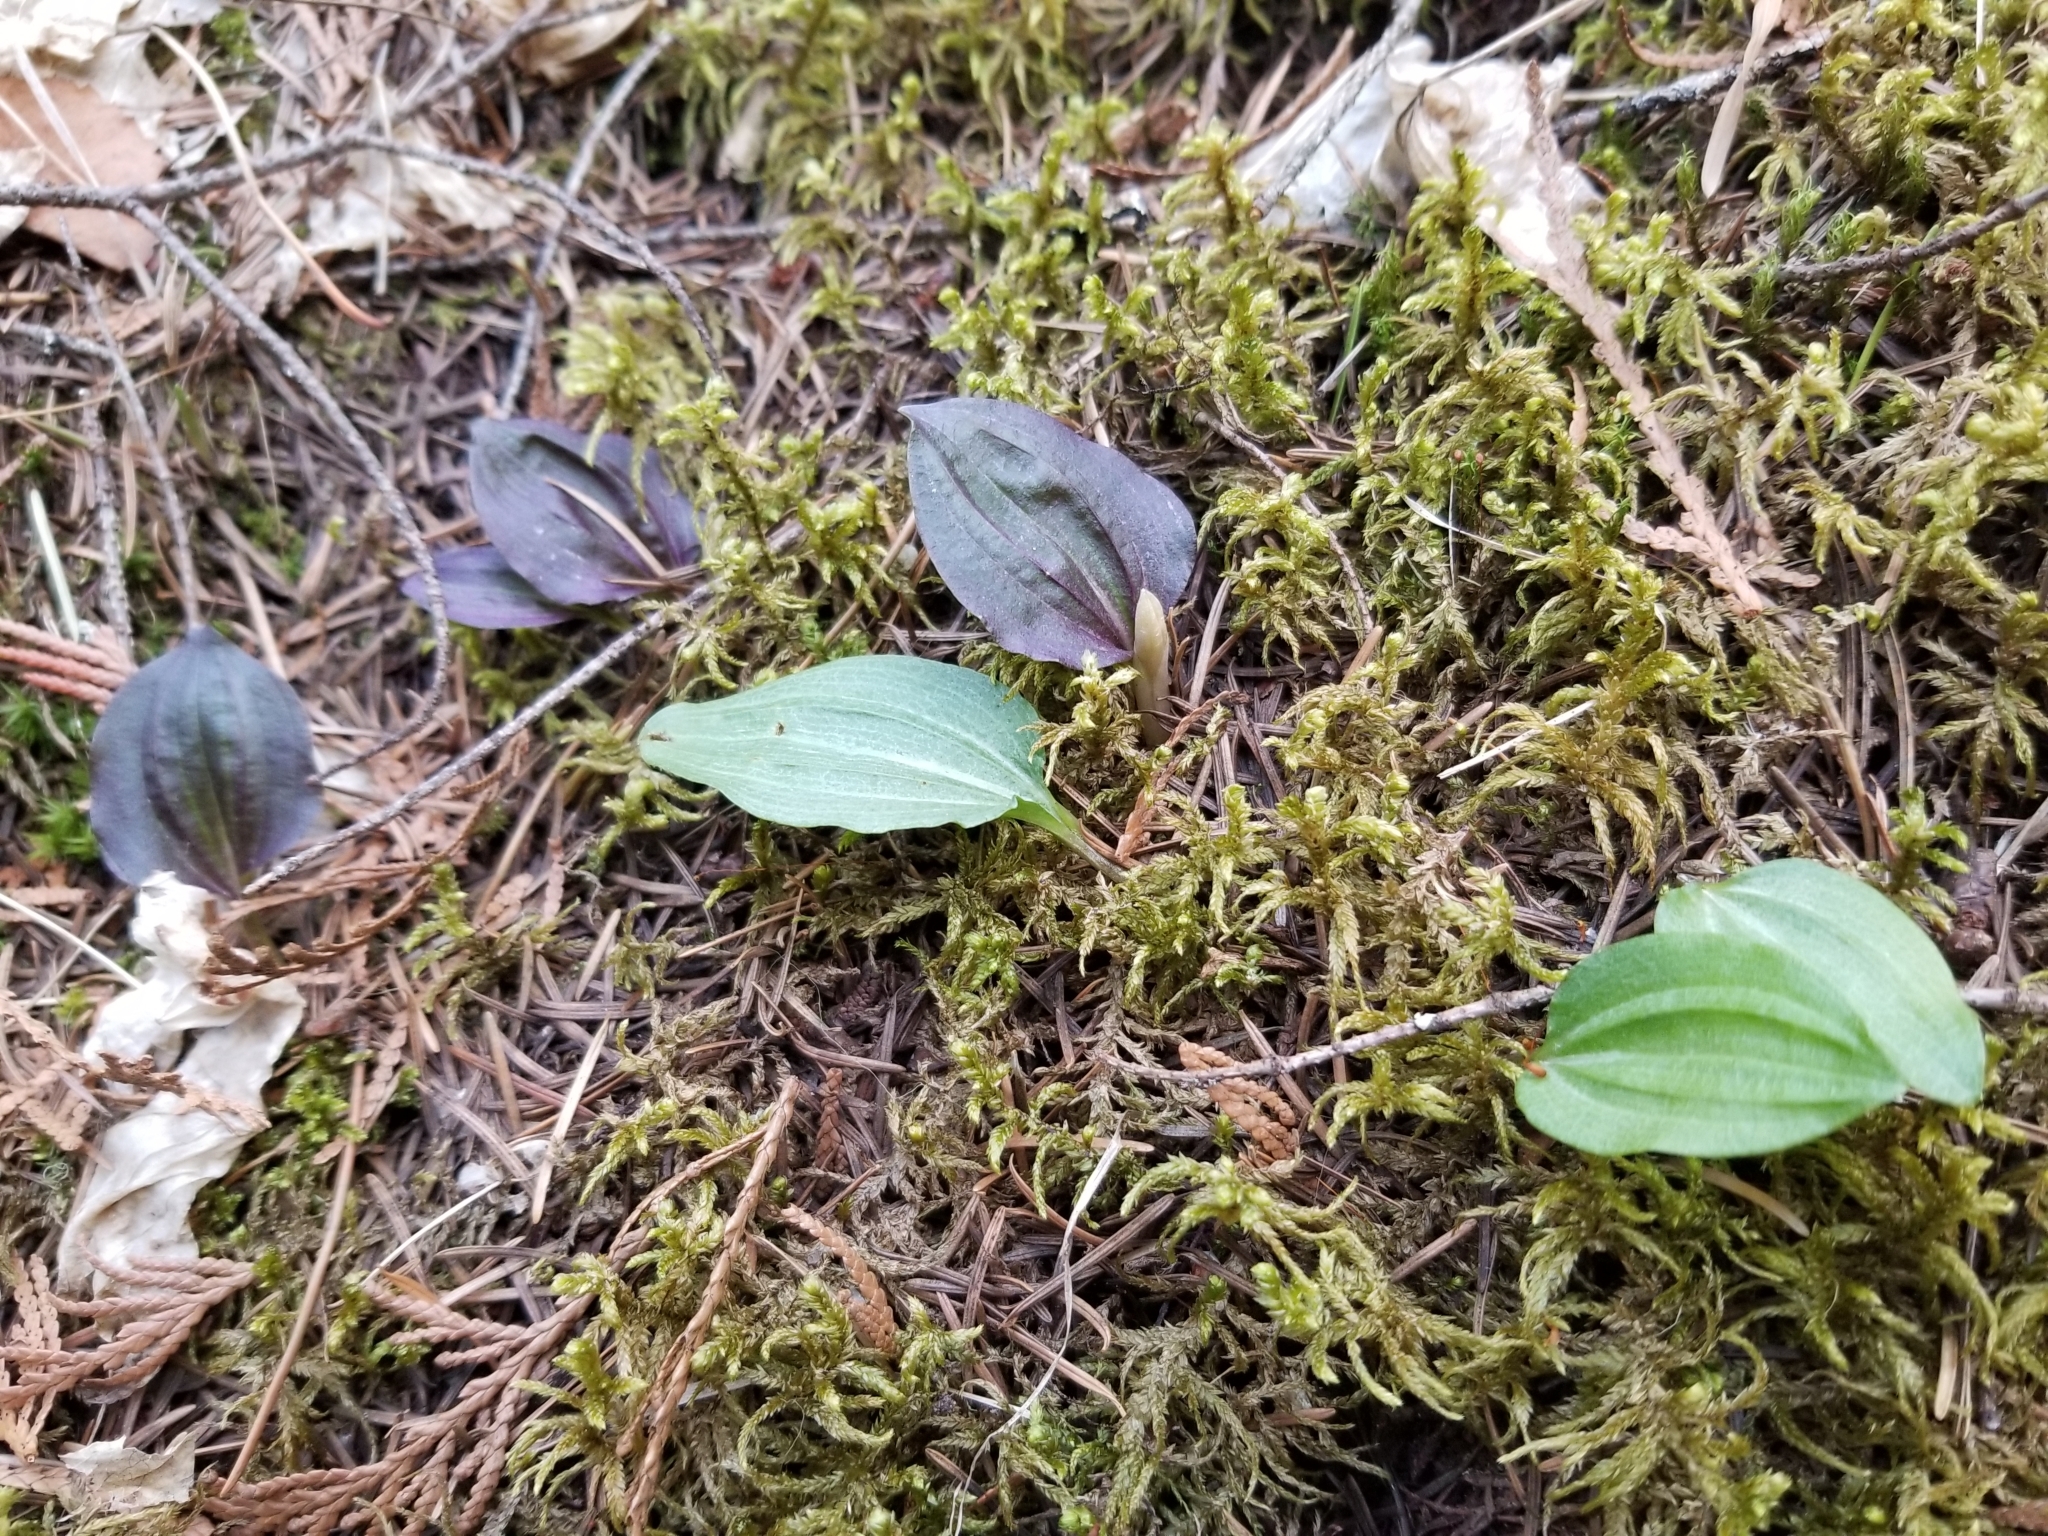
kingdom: Plantae
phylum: Tracheophyta
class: Liliopsida
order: Asparagales
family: Orchidaceae
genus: Calypso
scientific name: Calypso bulbosa
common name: Calypso
